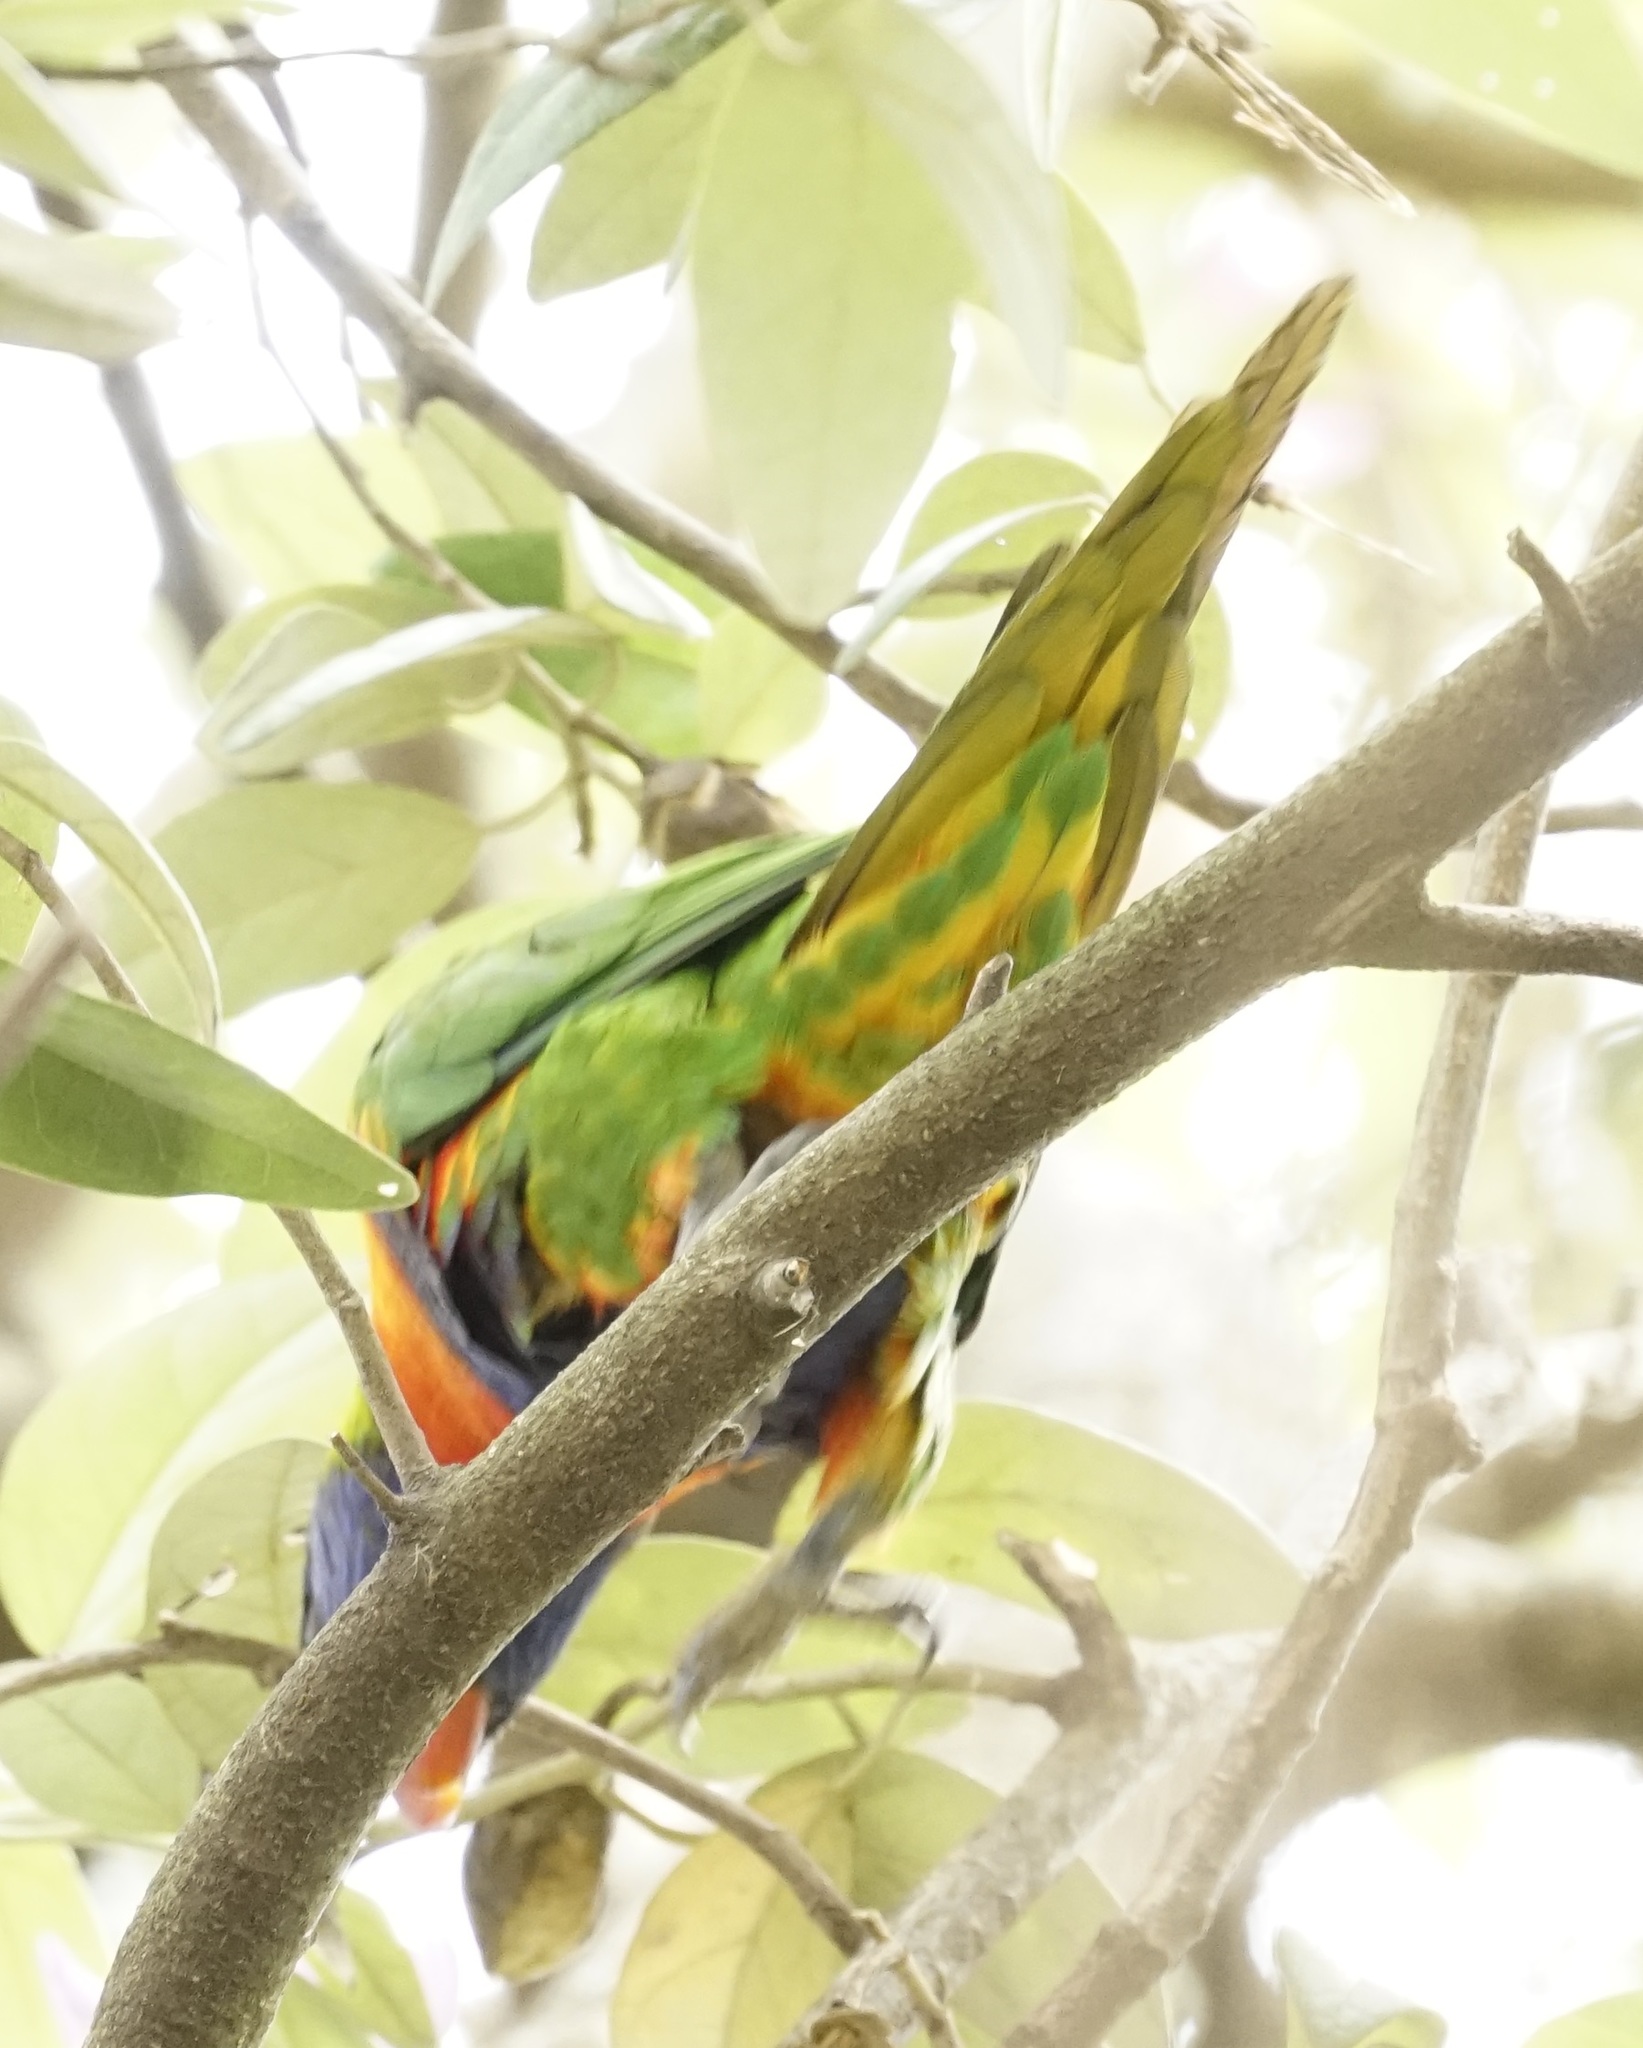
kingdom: Animalia
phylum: Chordata
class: Aves
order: Psittaciformes
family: Psittacidae
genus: Trichoglossus
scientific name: Trichoglossus haematodus
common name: Coconut lorikeet
